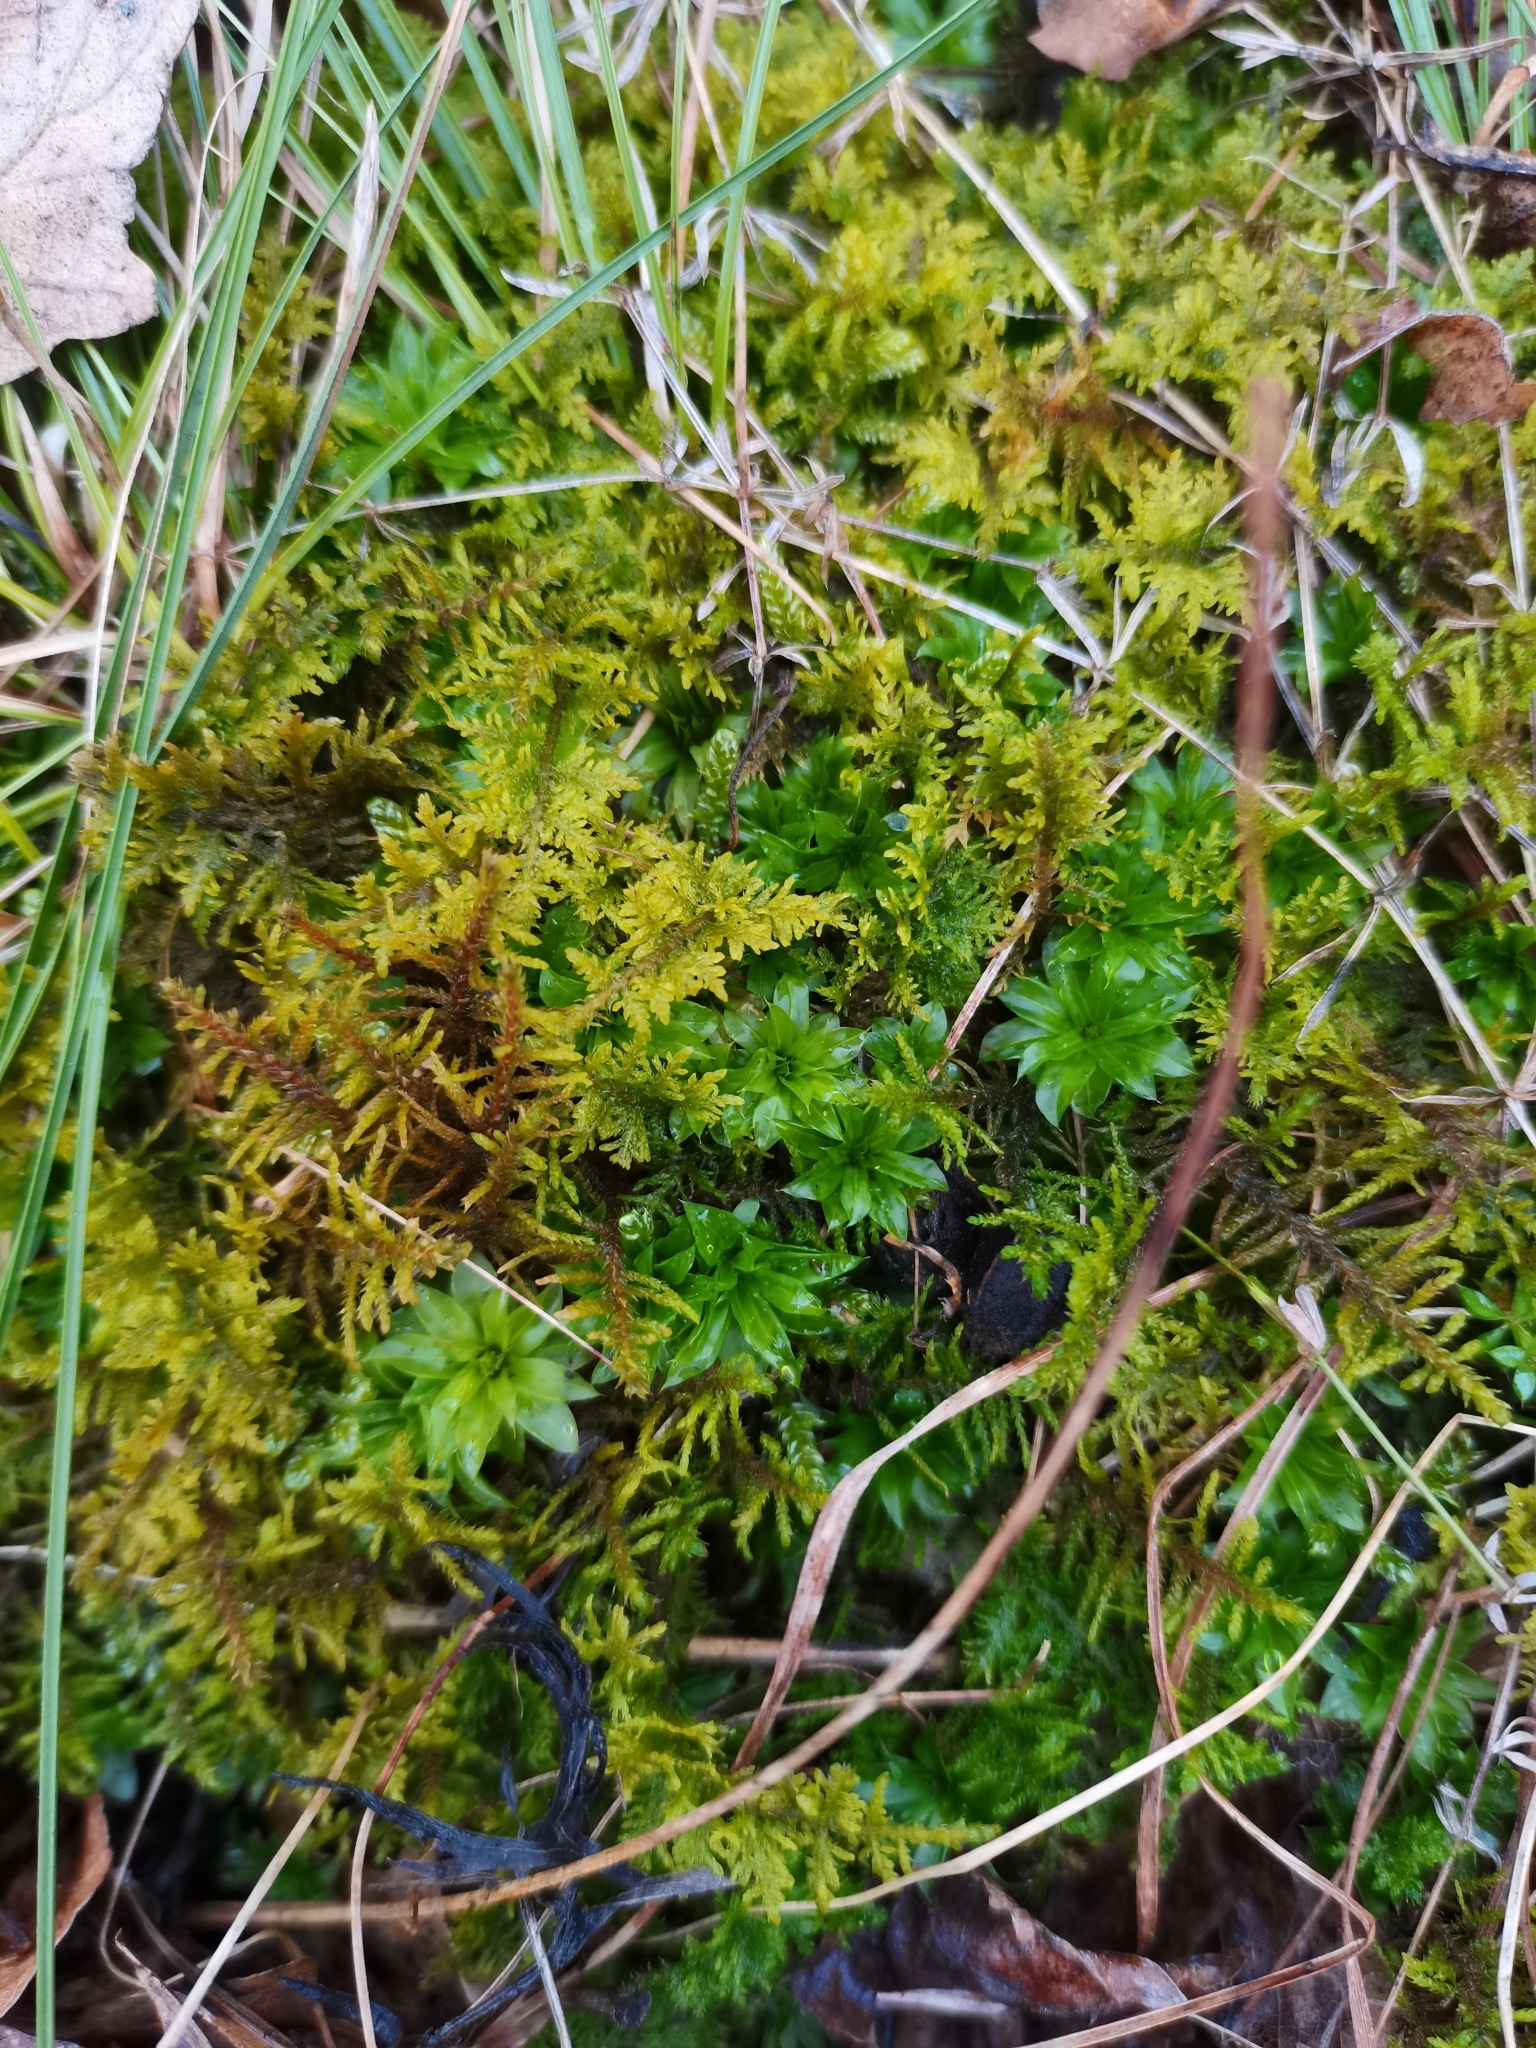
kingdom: Plantae
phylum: Bryophyta
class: Bryopsida
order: Hypnales
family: Thuidiaceae
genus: Abietinella
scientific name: Abietinella abietina
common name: Wiry fern moss
